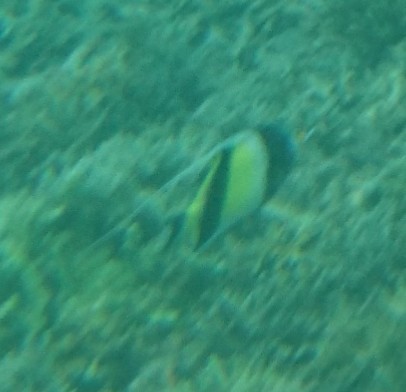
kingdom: Animalia
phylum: Chordata
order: Perciformes
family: Zanclidae
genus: Zanclus
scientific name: Zanclus cornutus
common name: Moorish idol
